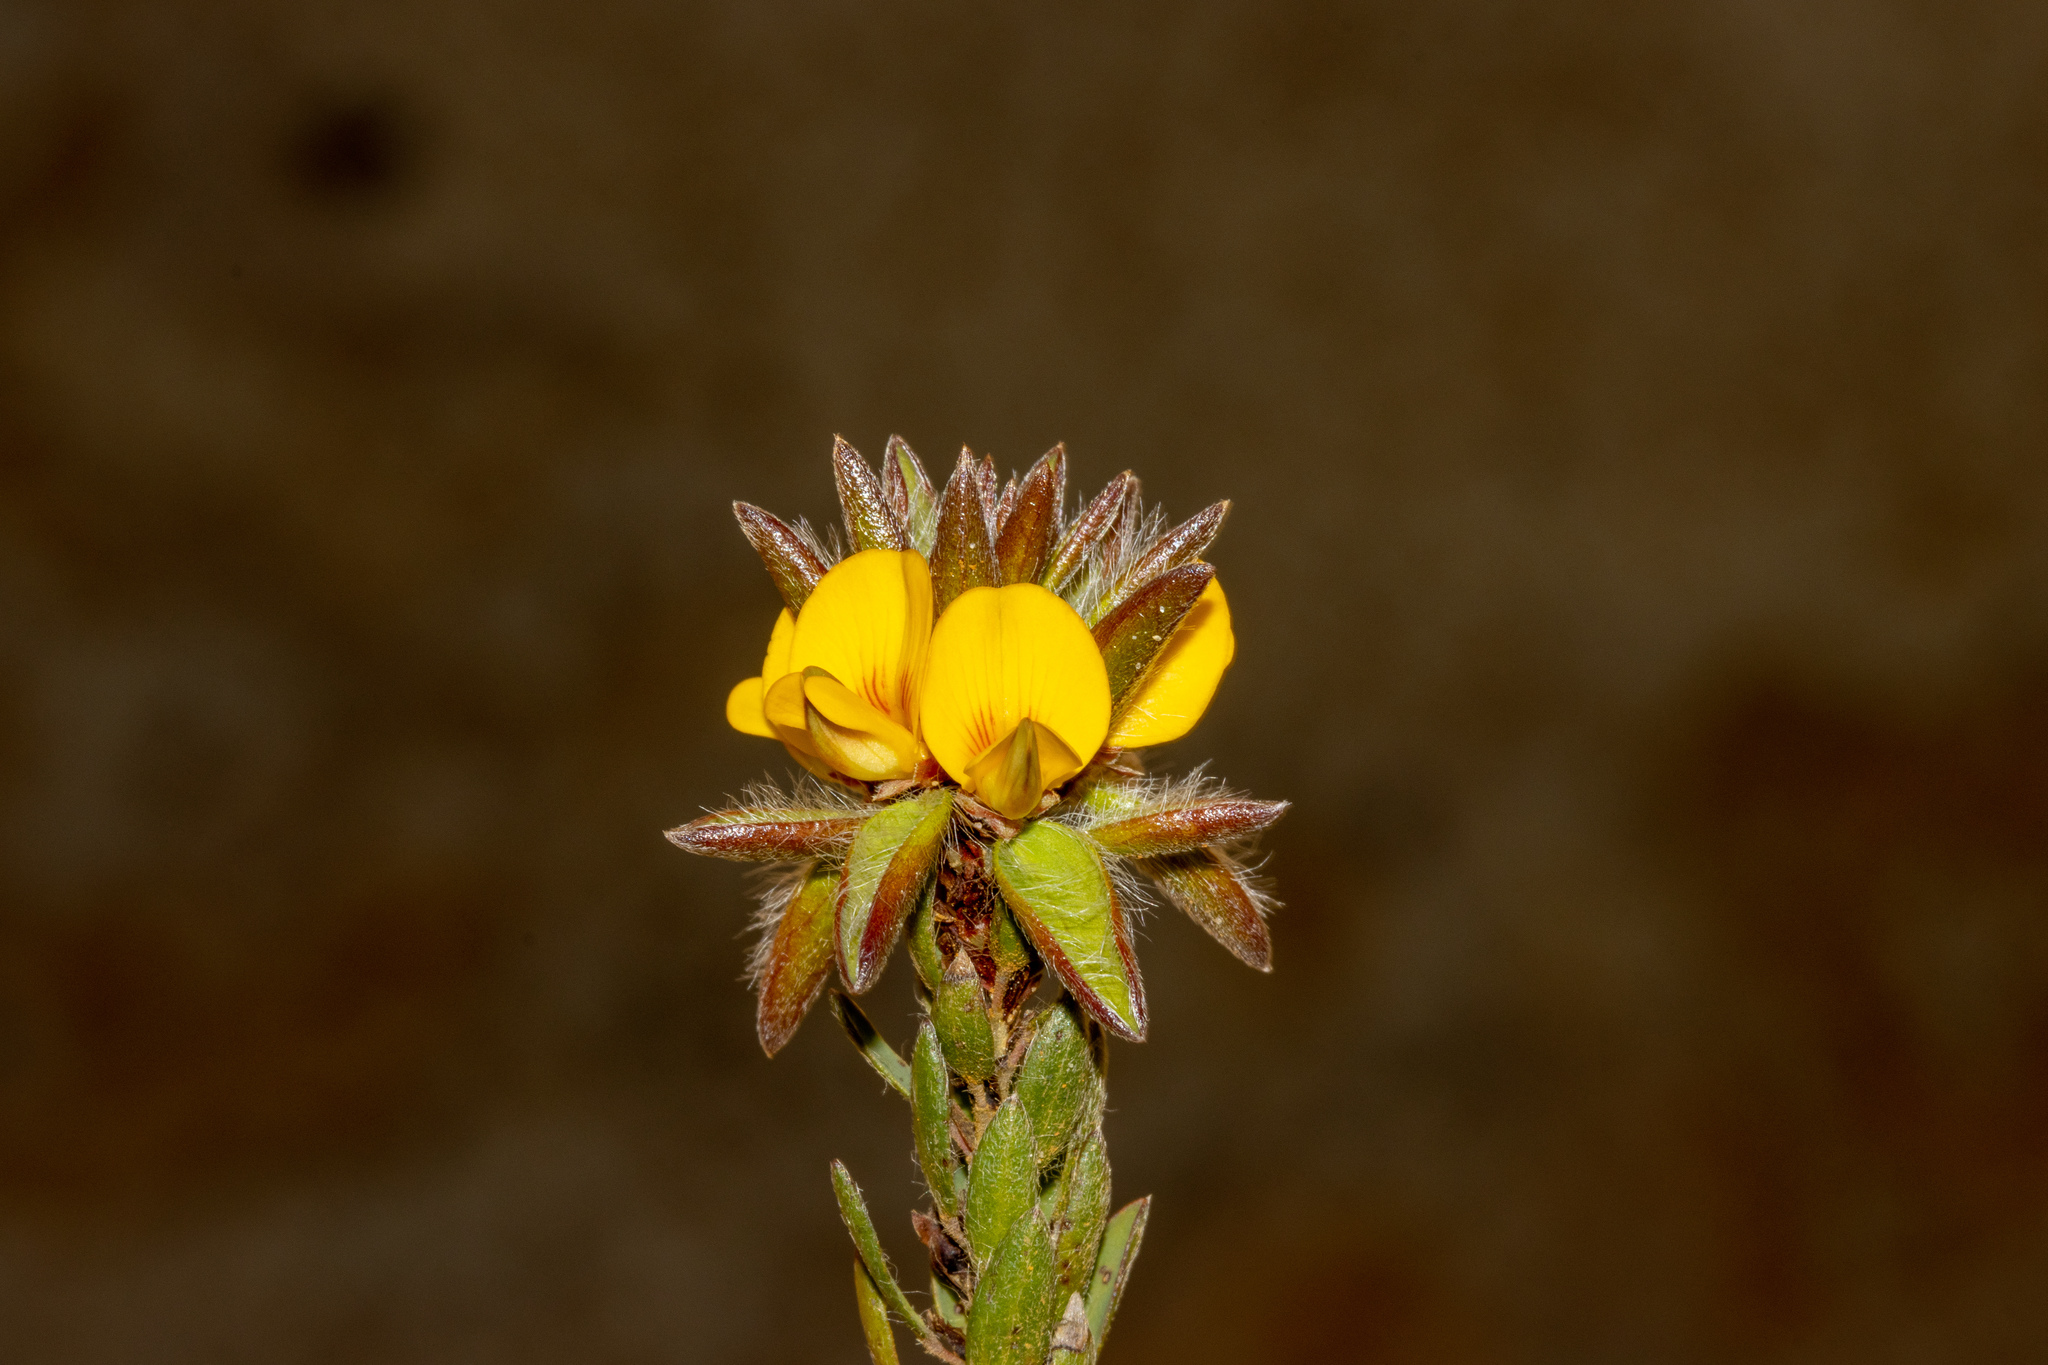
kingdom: Plantae
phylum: Tracheophyta
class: Magnoliopsida
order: Fabales
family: Fabaceae
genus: Pultenaea
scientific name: Pultenaea trinervis
